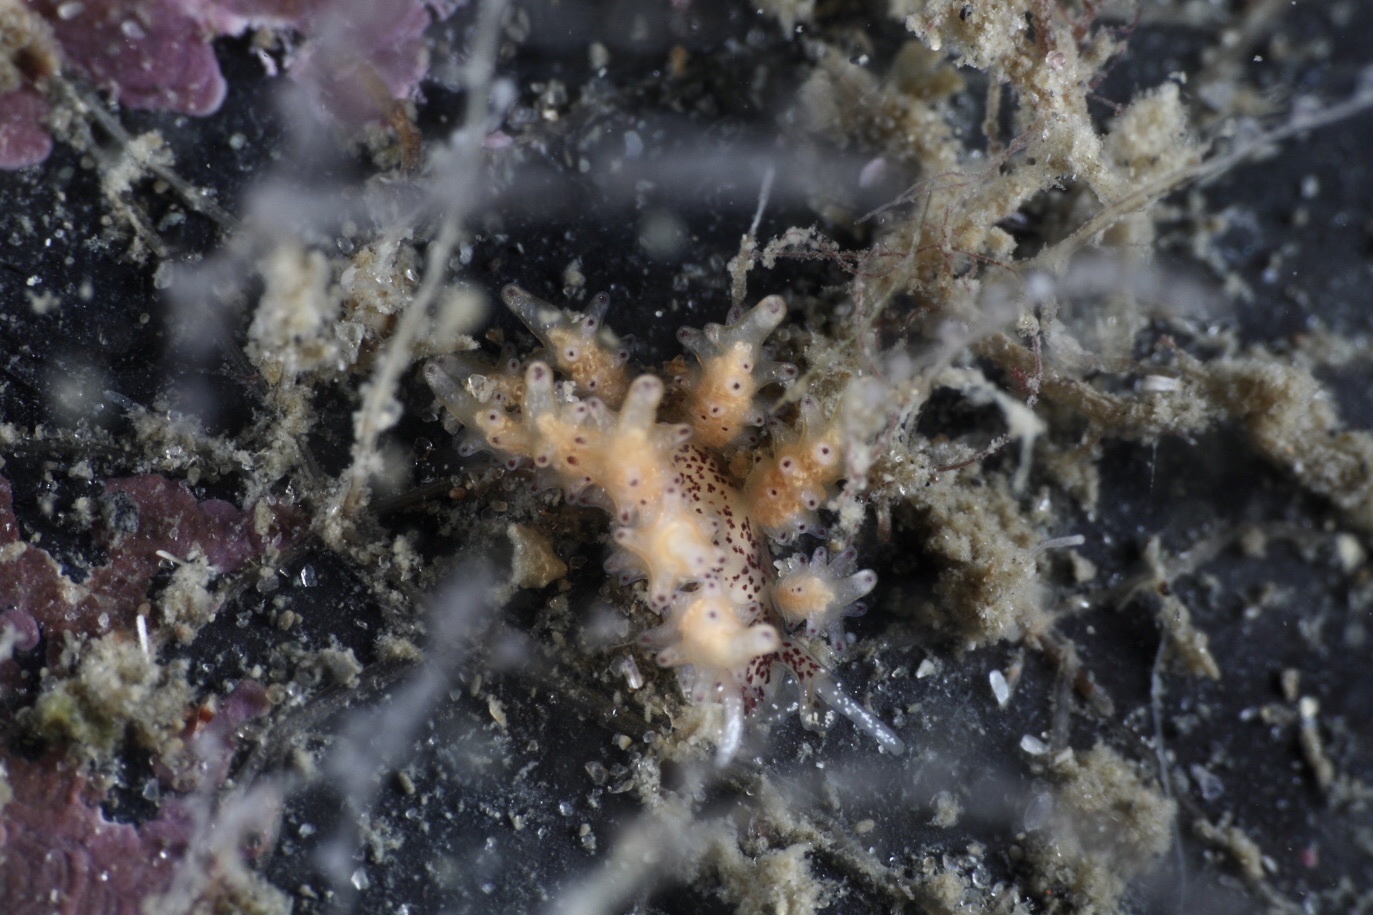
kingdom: Animalia
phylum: Mollusca
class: Gastropoda
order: Nudibranchia
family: Dotidae
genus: Doto
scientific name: Doto dunnei
